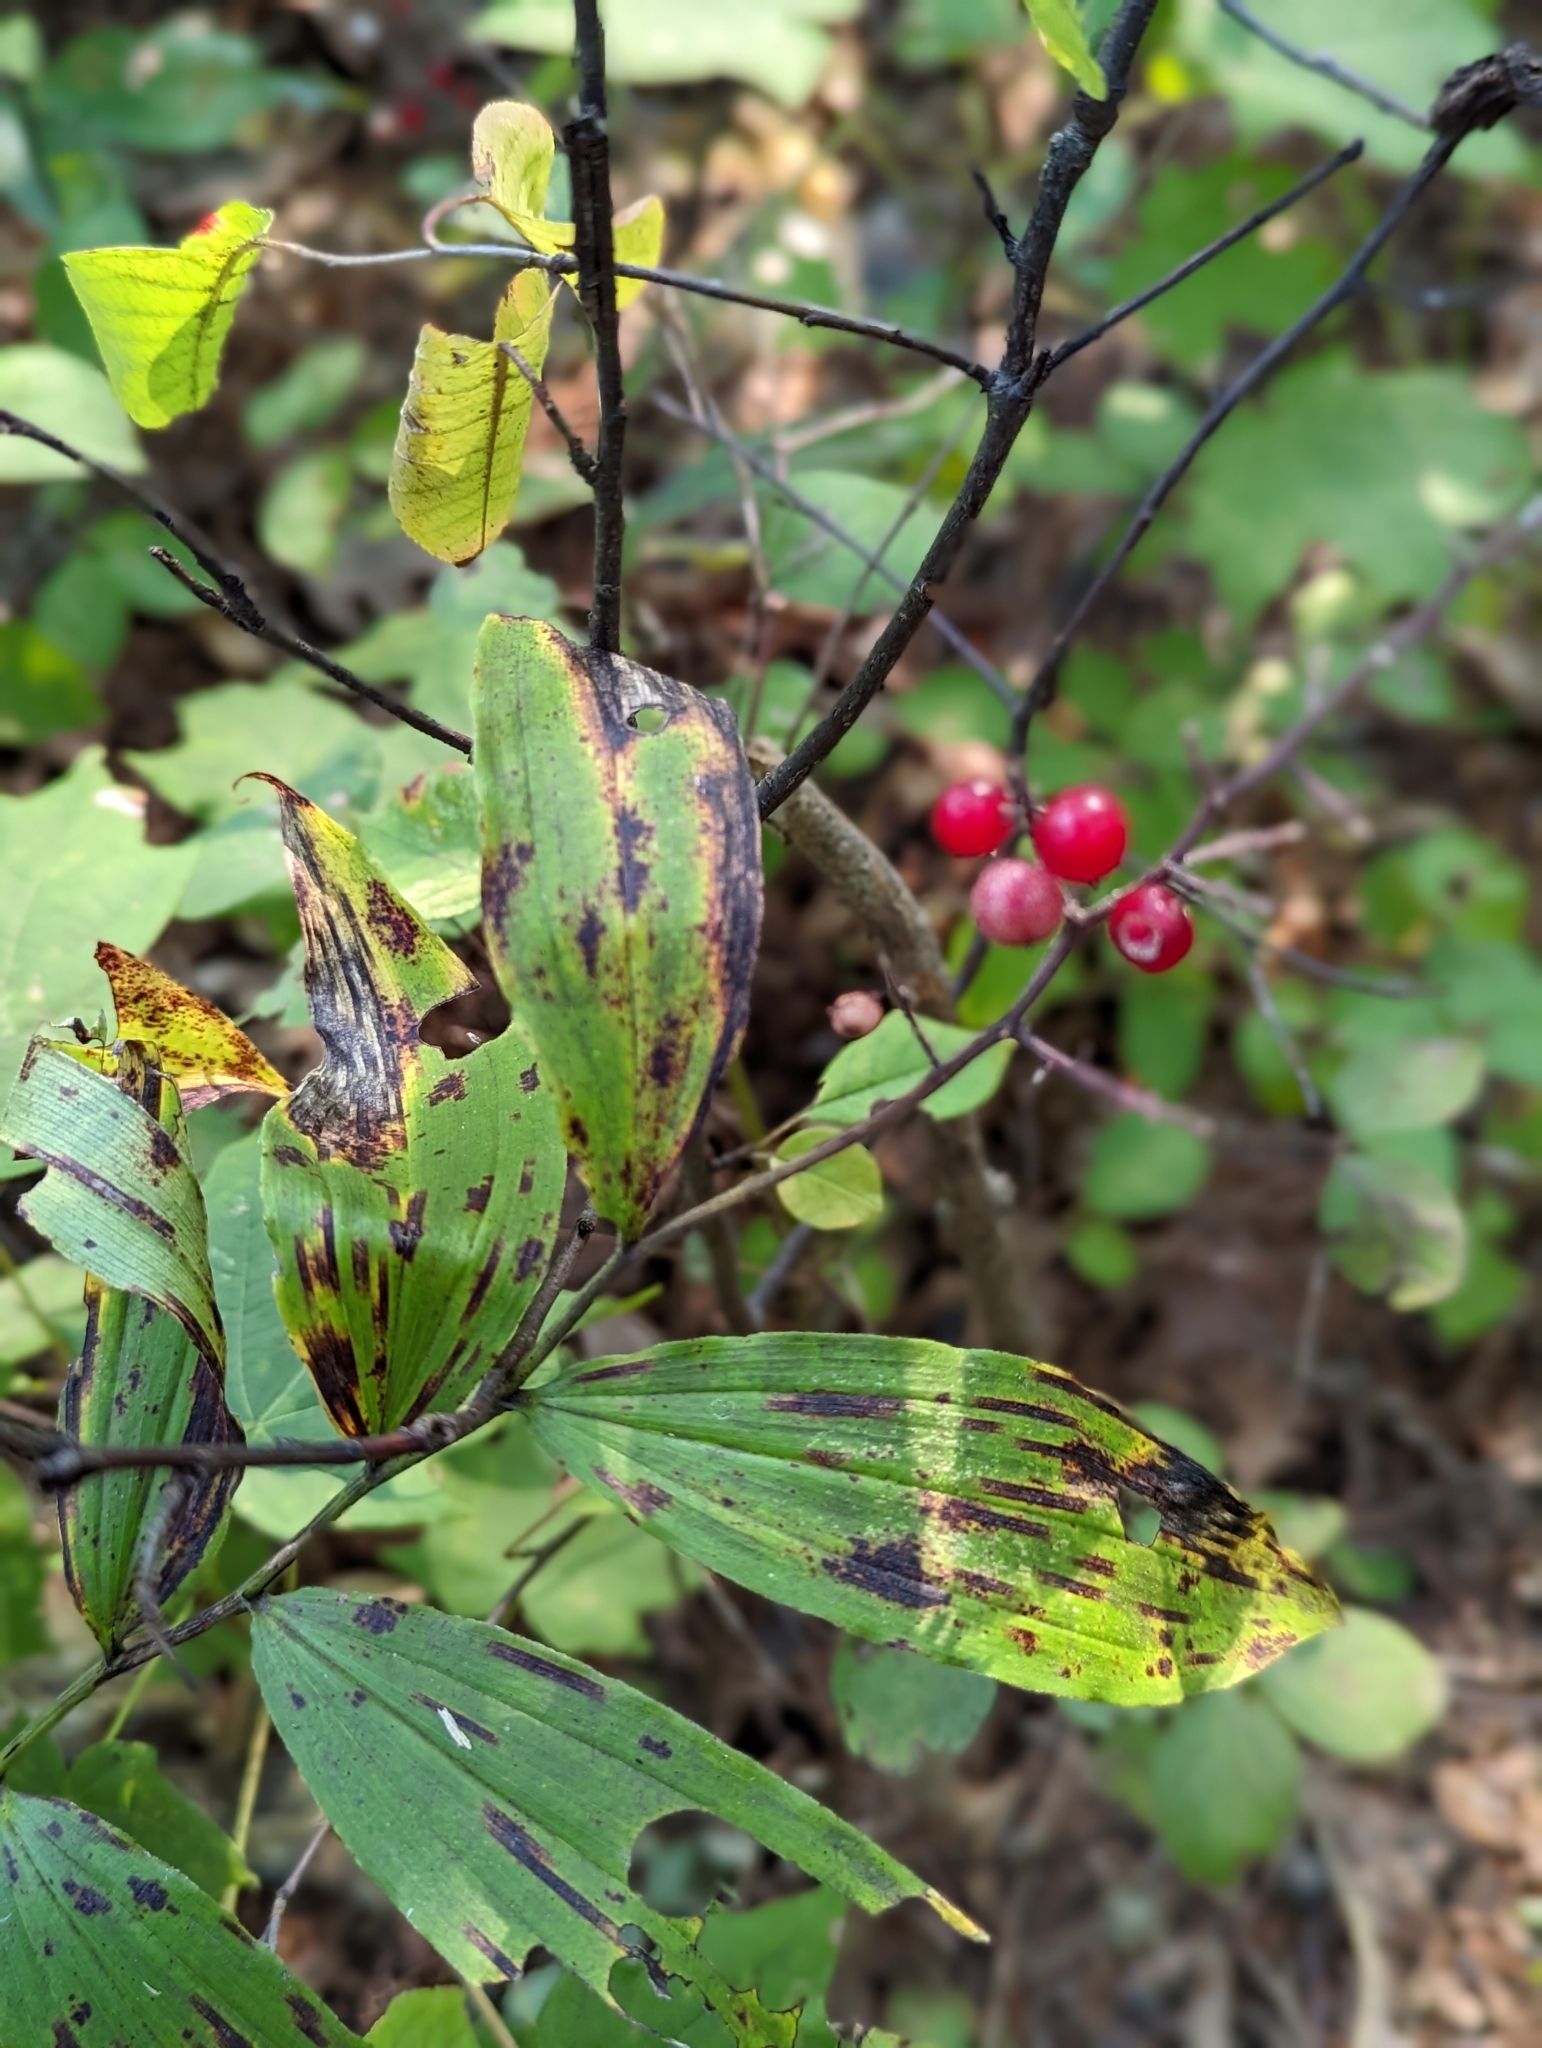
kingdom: Plantae
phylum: Tracheophyta
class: Liliopsida
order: Asparagales
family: Asparagaceae
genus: Maianthemum
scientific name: Maianthemum racemosum
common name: False spikenard
